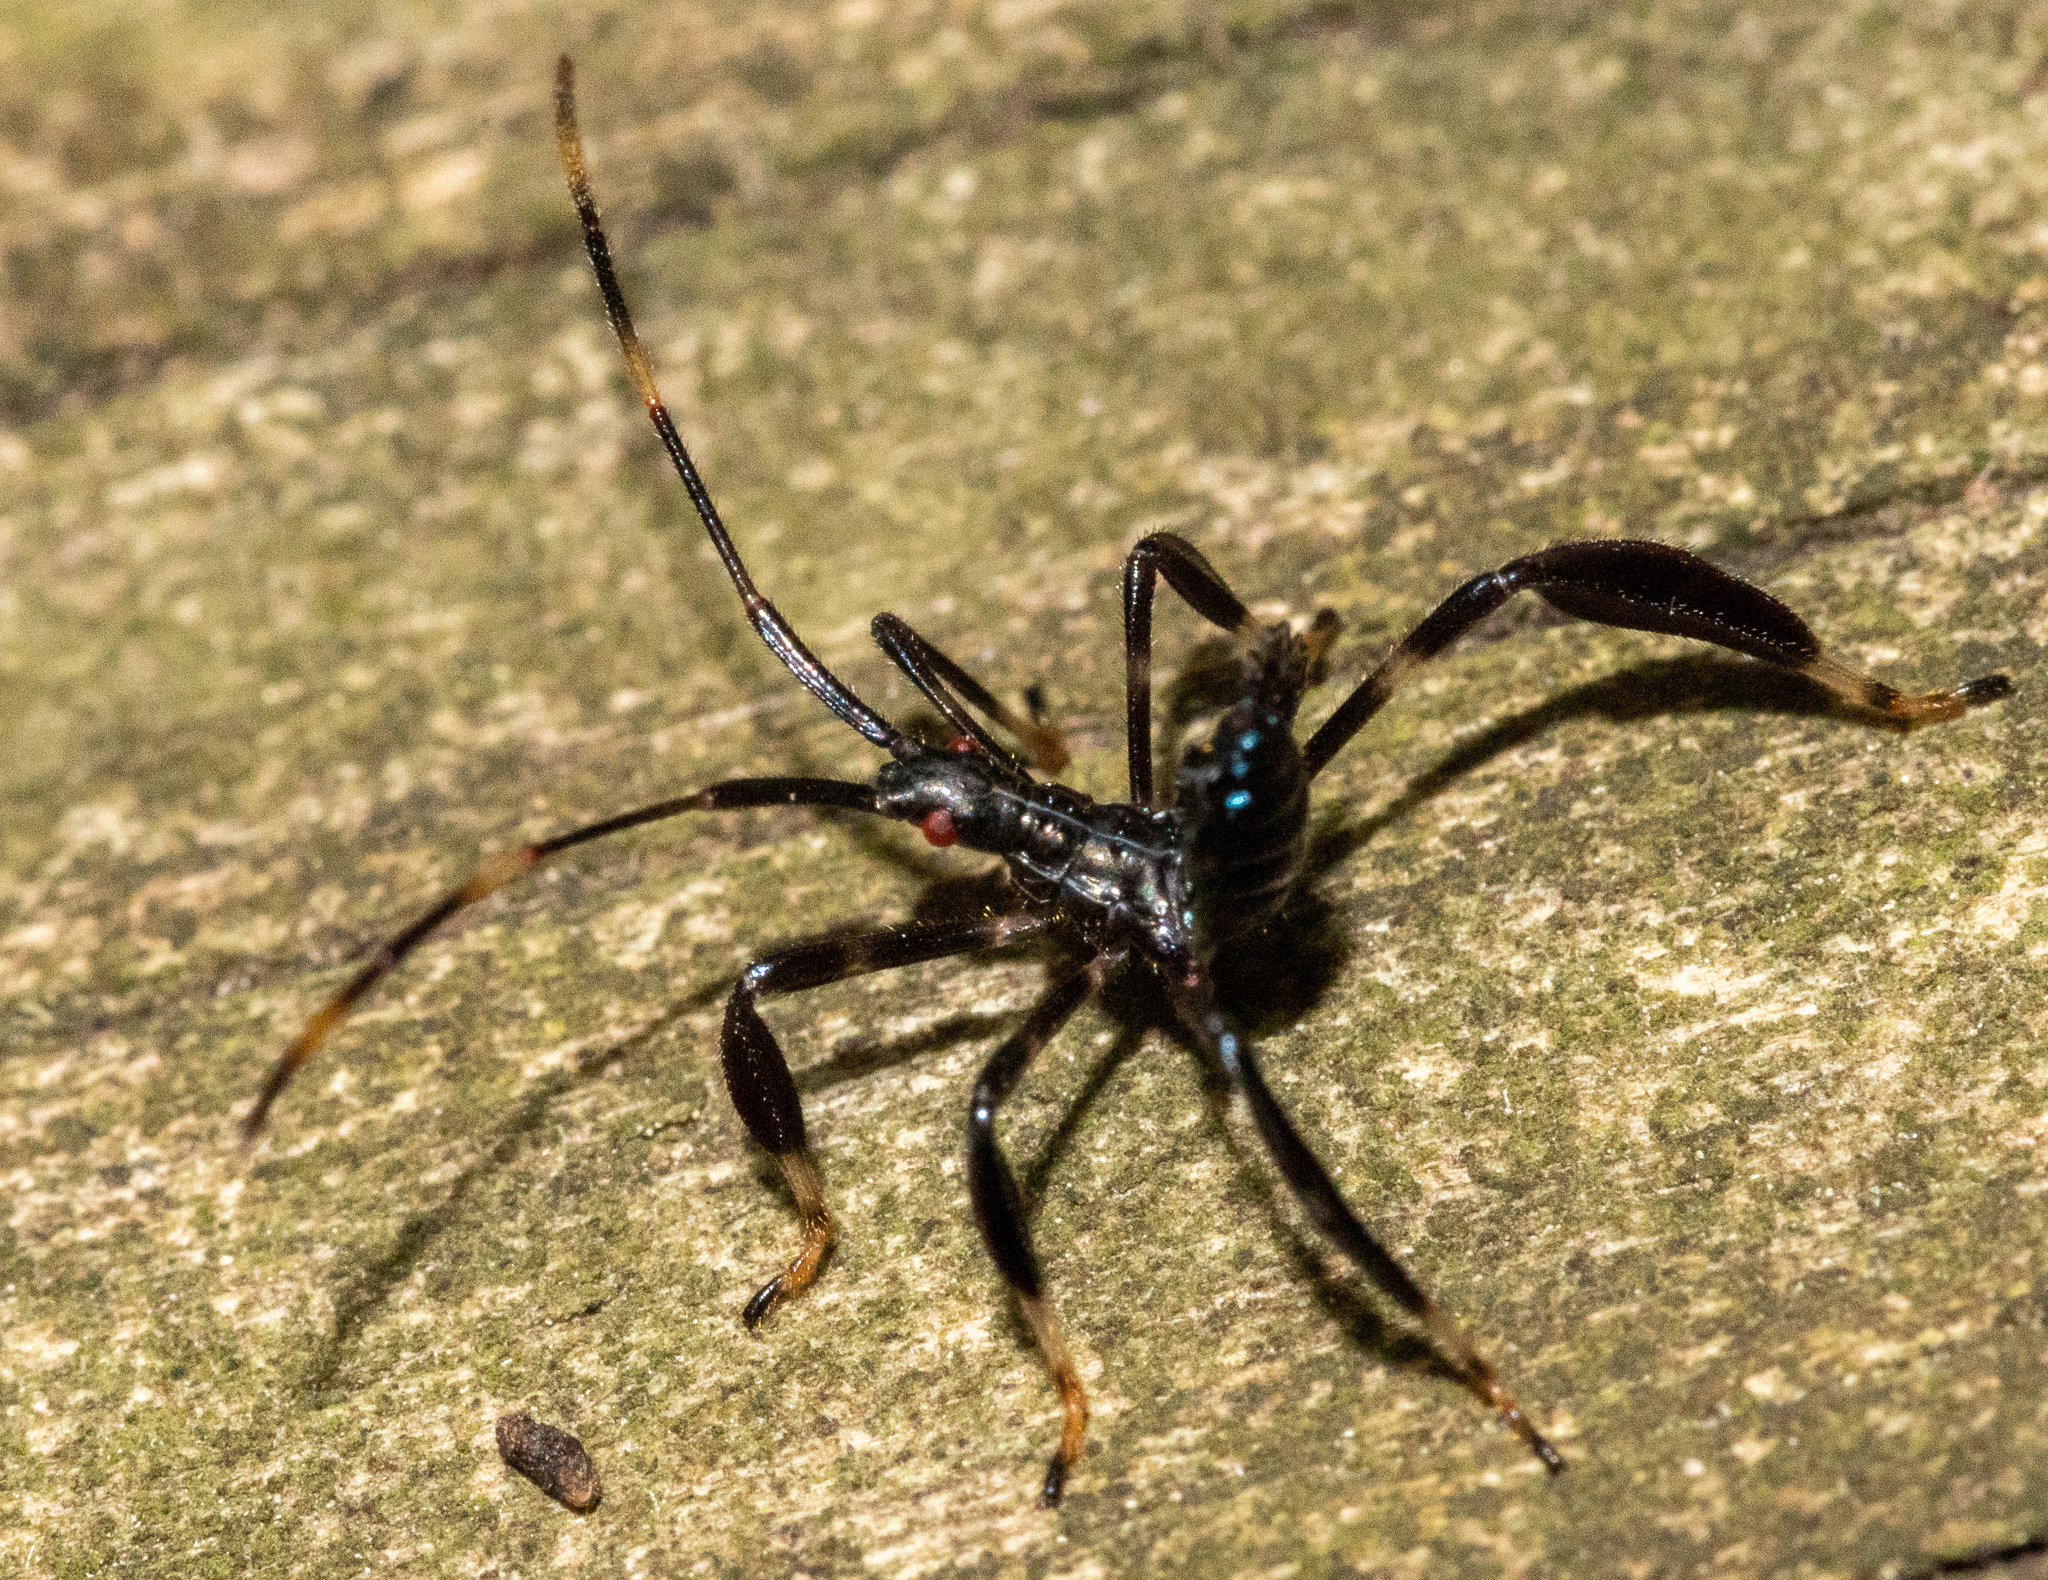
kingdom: Animalia
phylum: Arthropoda
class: Insecta
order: Hemiptera
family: Coreidae
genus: Acanthocephala
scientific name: Acanthocephala terminalis
